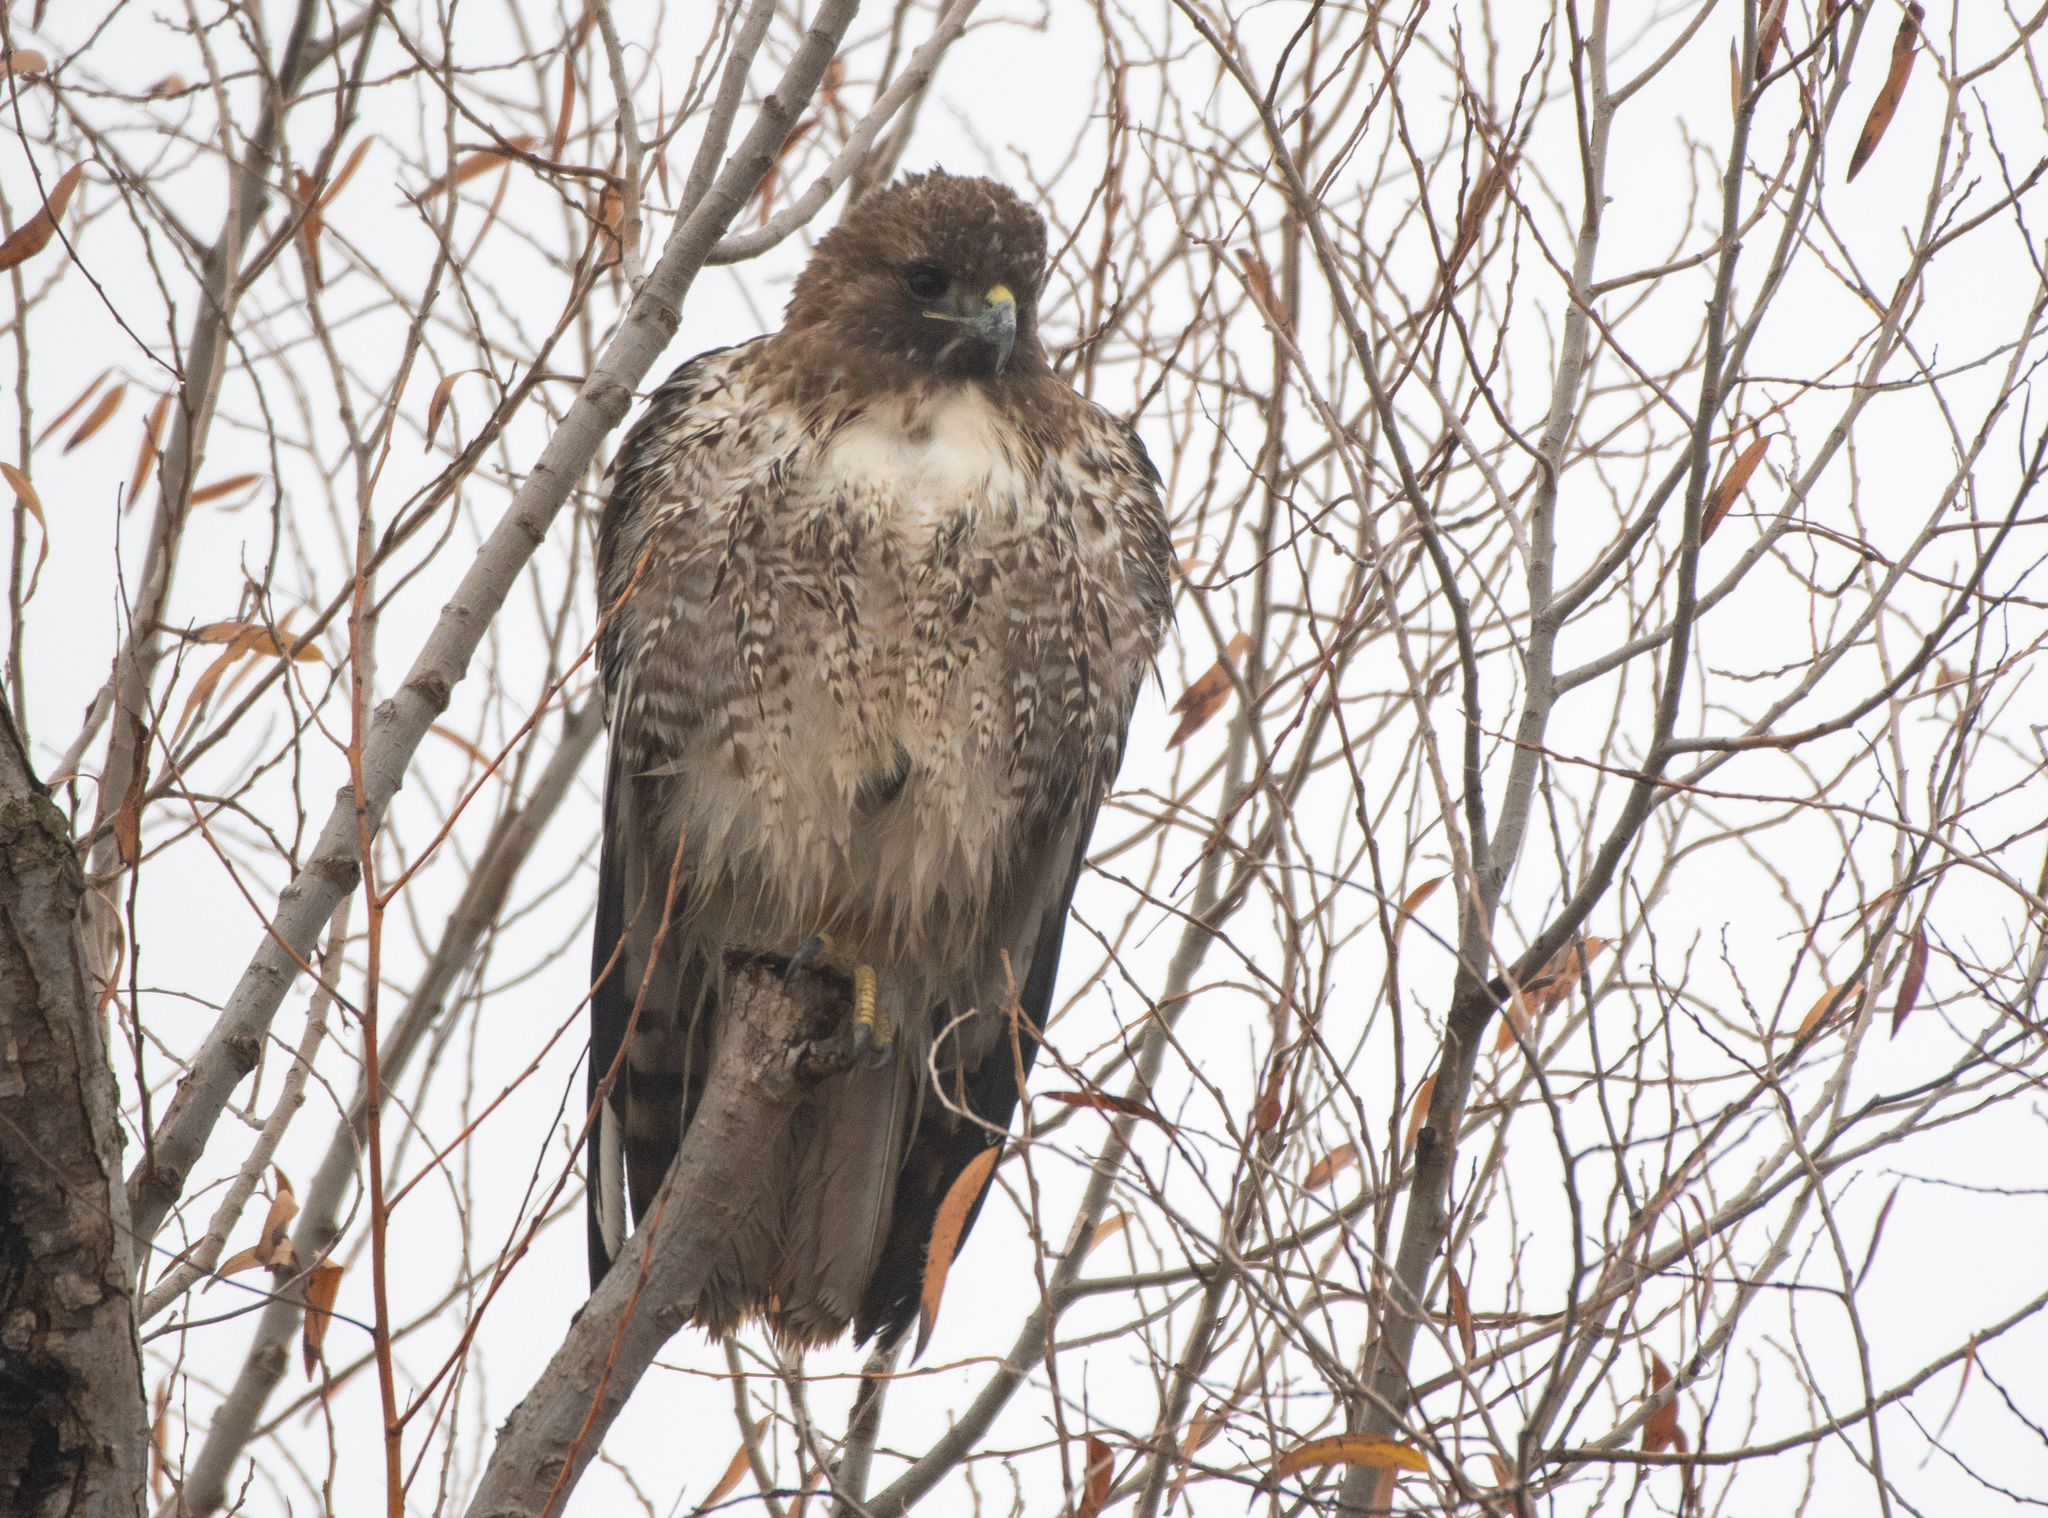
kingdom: Animalia
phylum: Chordata
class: Aves
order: Accipitriformes
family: Accipitridae
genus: Buteo
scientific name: Buteo jamaicensis
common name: Red-tailed hawk
